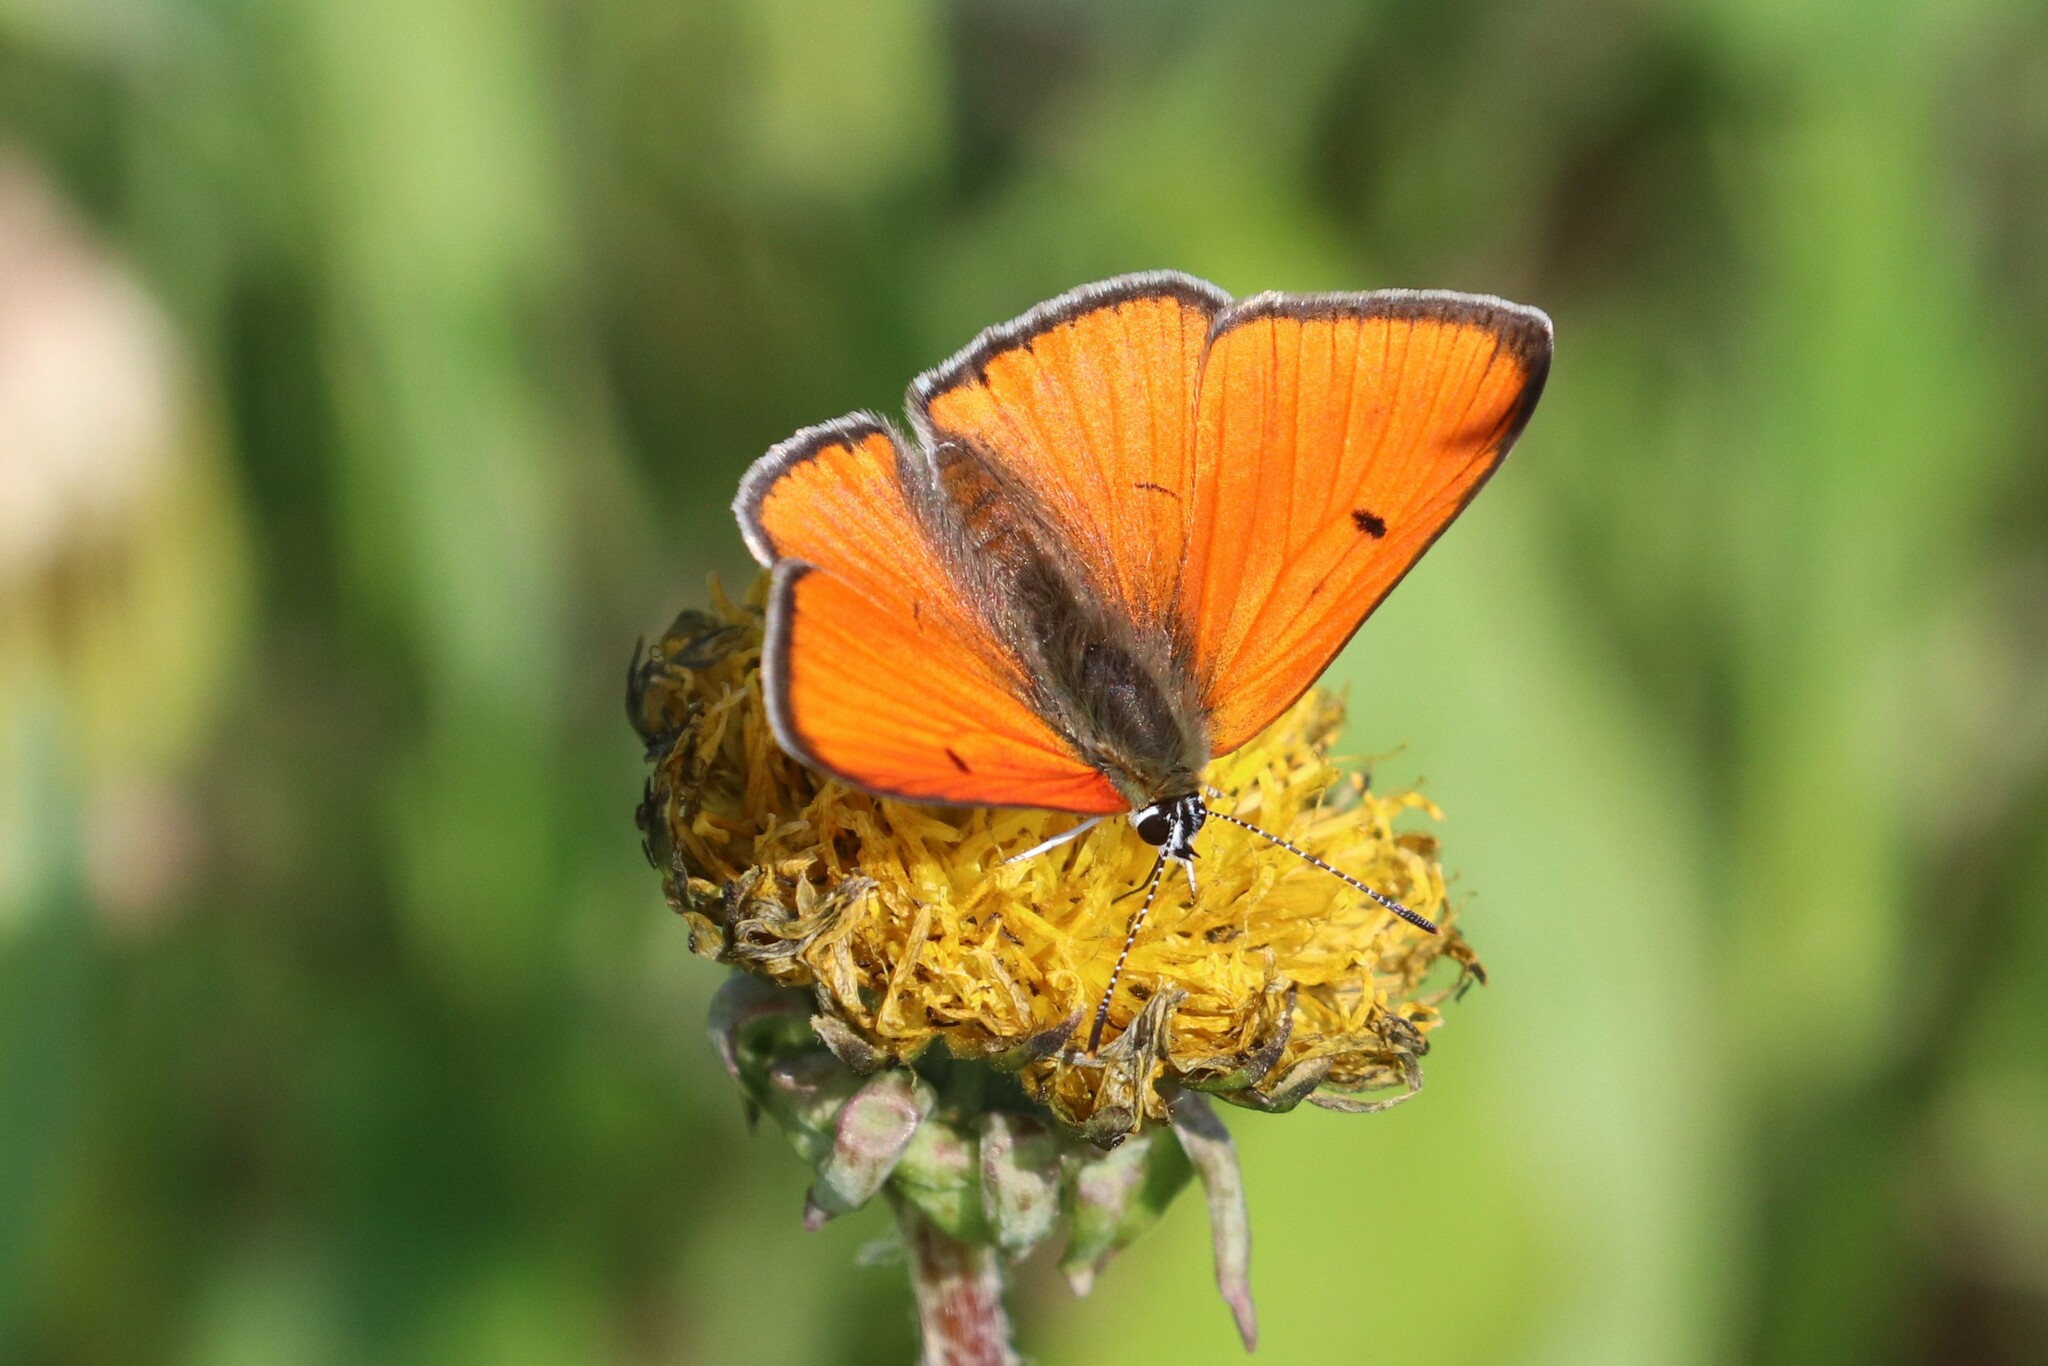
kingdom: Animalia
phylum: Arthropoda
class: Insecta
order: Lepidoptera
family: Lycaenidae
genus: Lycaena
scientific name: Lycaena dispar
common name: Large copper
